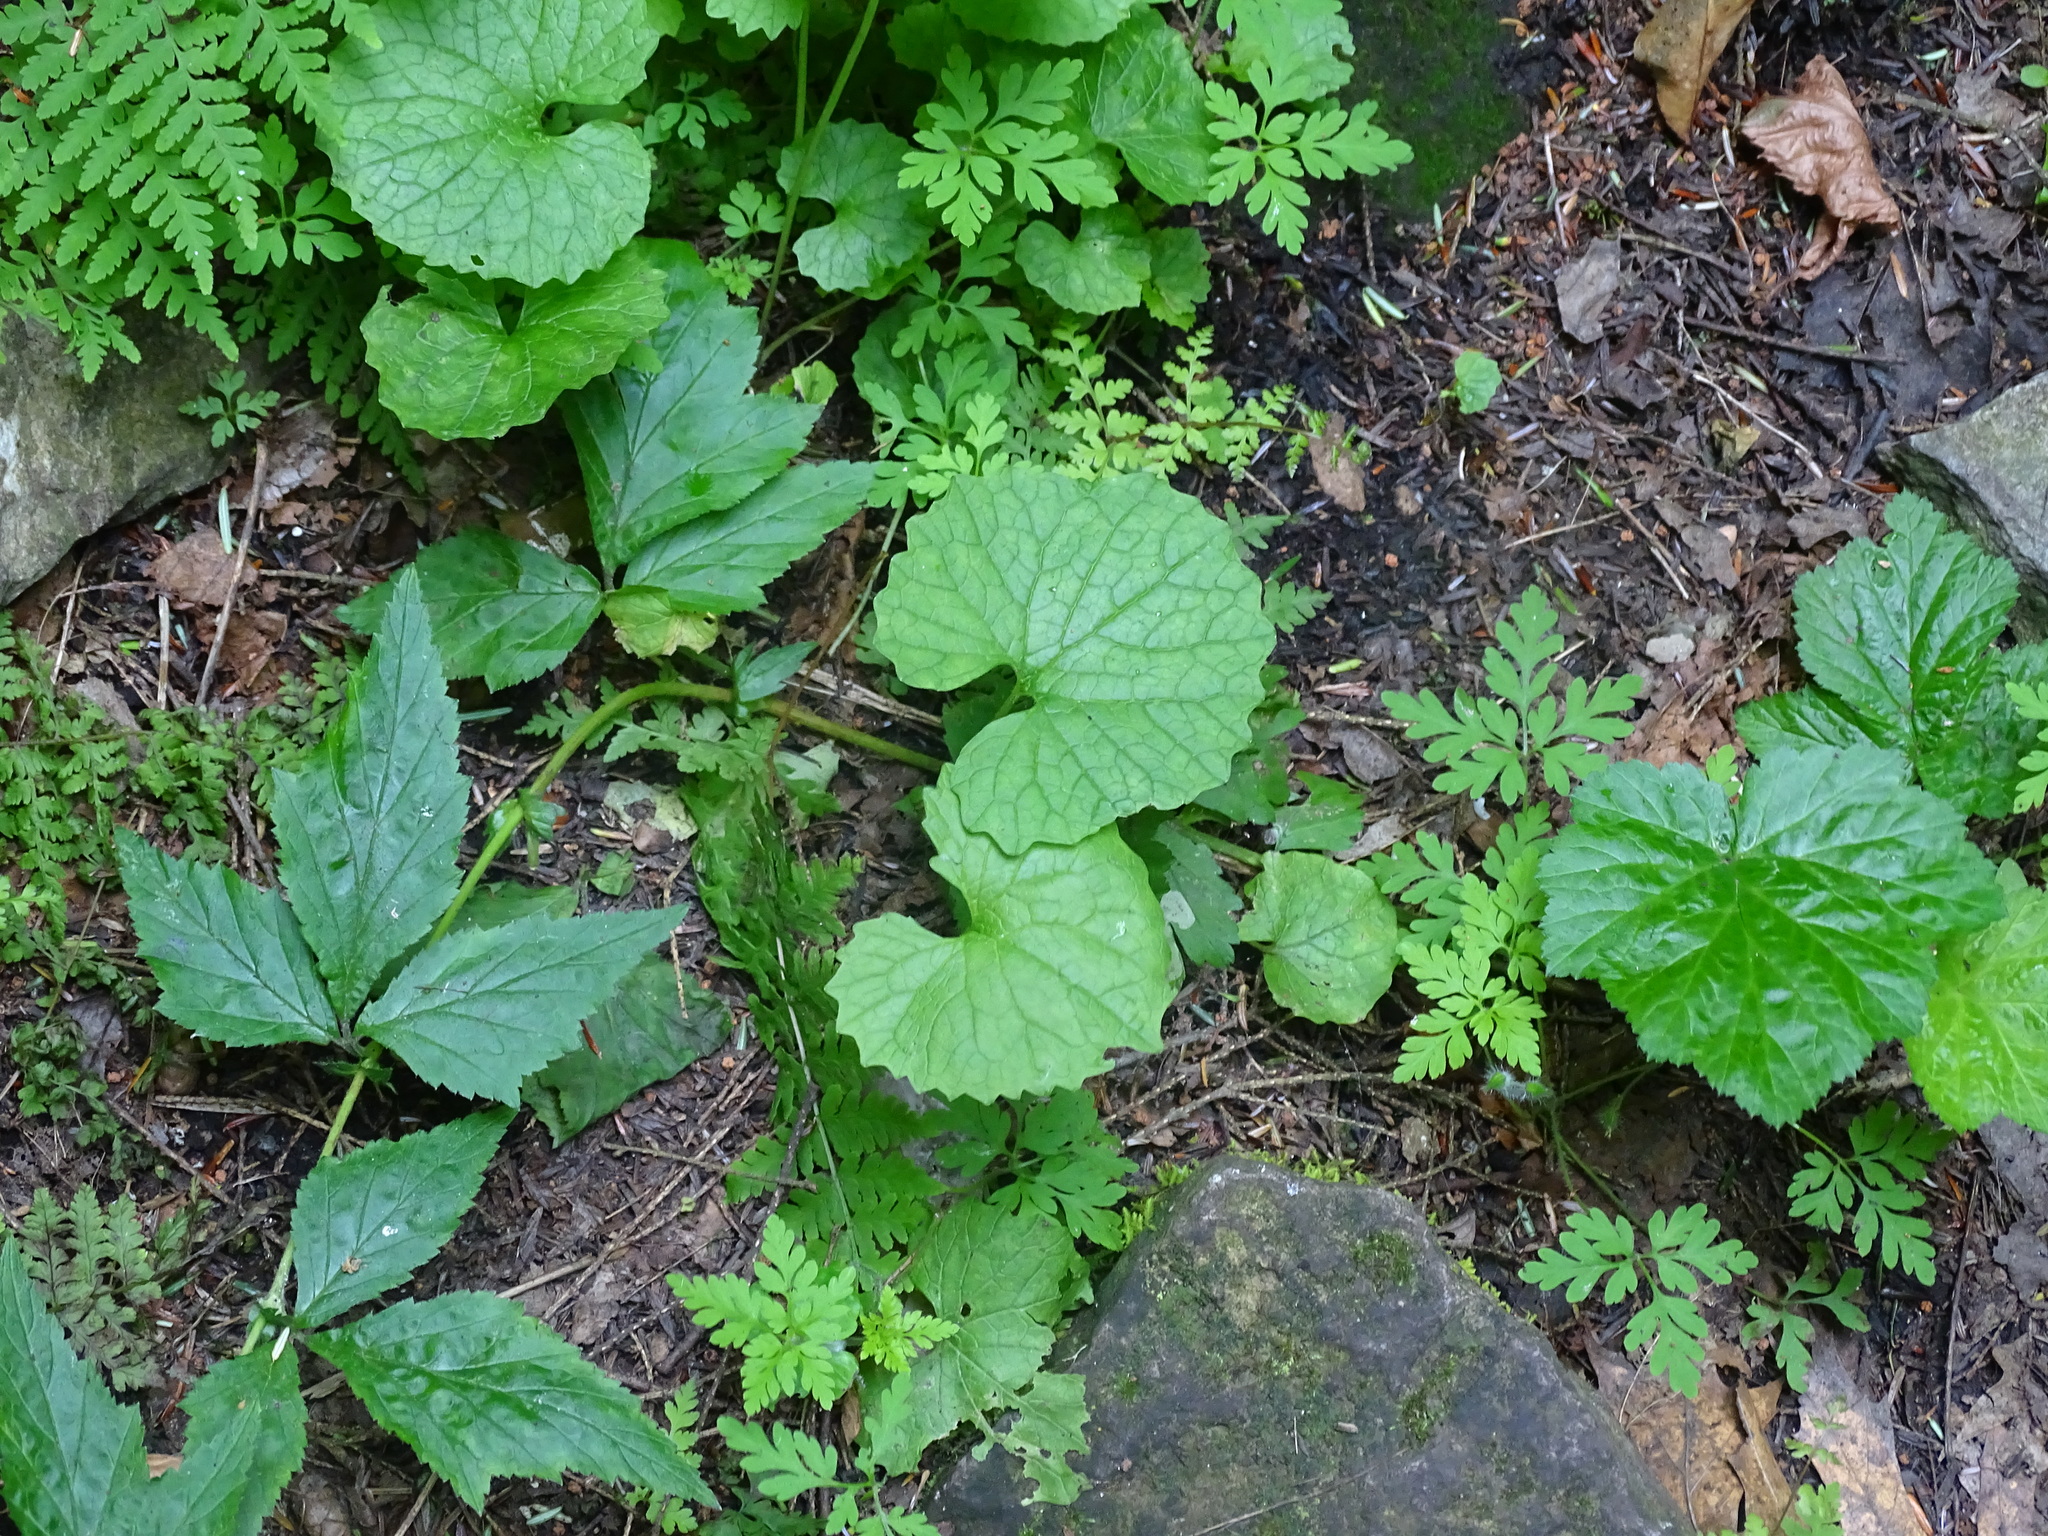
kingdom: Plantae
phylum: Tracheophyta
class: Magnoliopsida
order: Brassicales
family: Brassicaceae
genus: Alliaria
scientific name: Alliaria petiolata
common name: Garlic mustard
